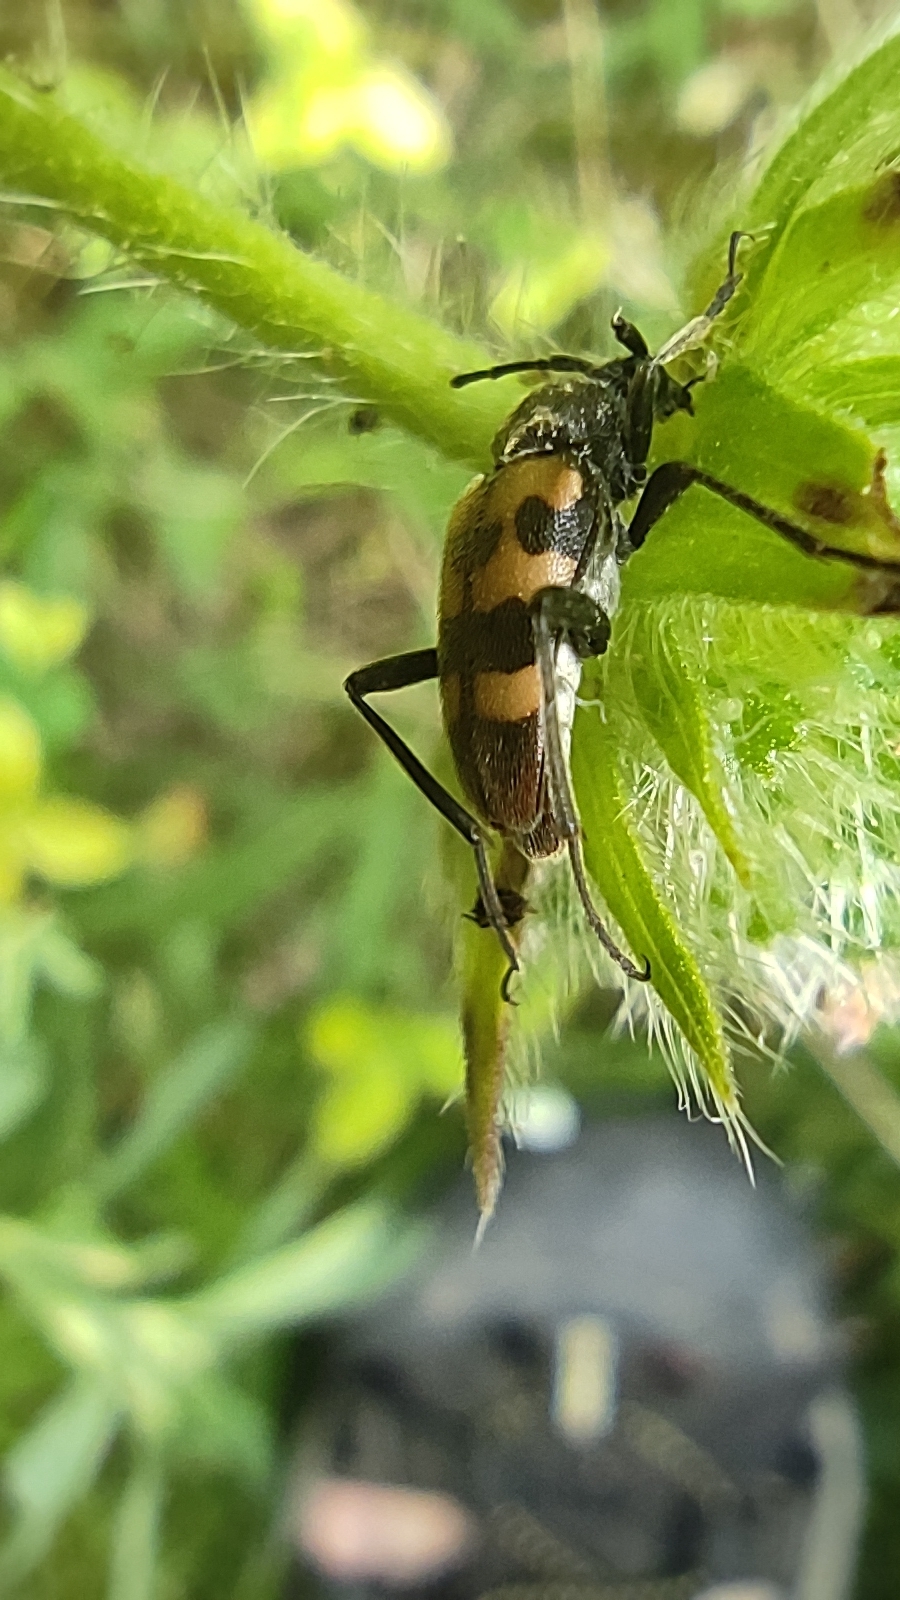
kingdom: Animalia
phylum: Arthropoda
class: Insecta
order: Coleoptera
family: Cerambycidae
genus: Pachytodes
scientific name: Pachytodes
